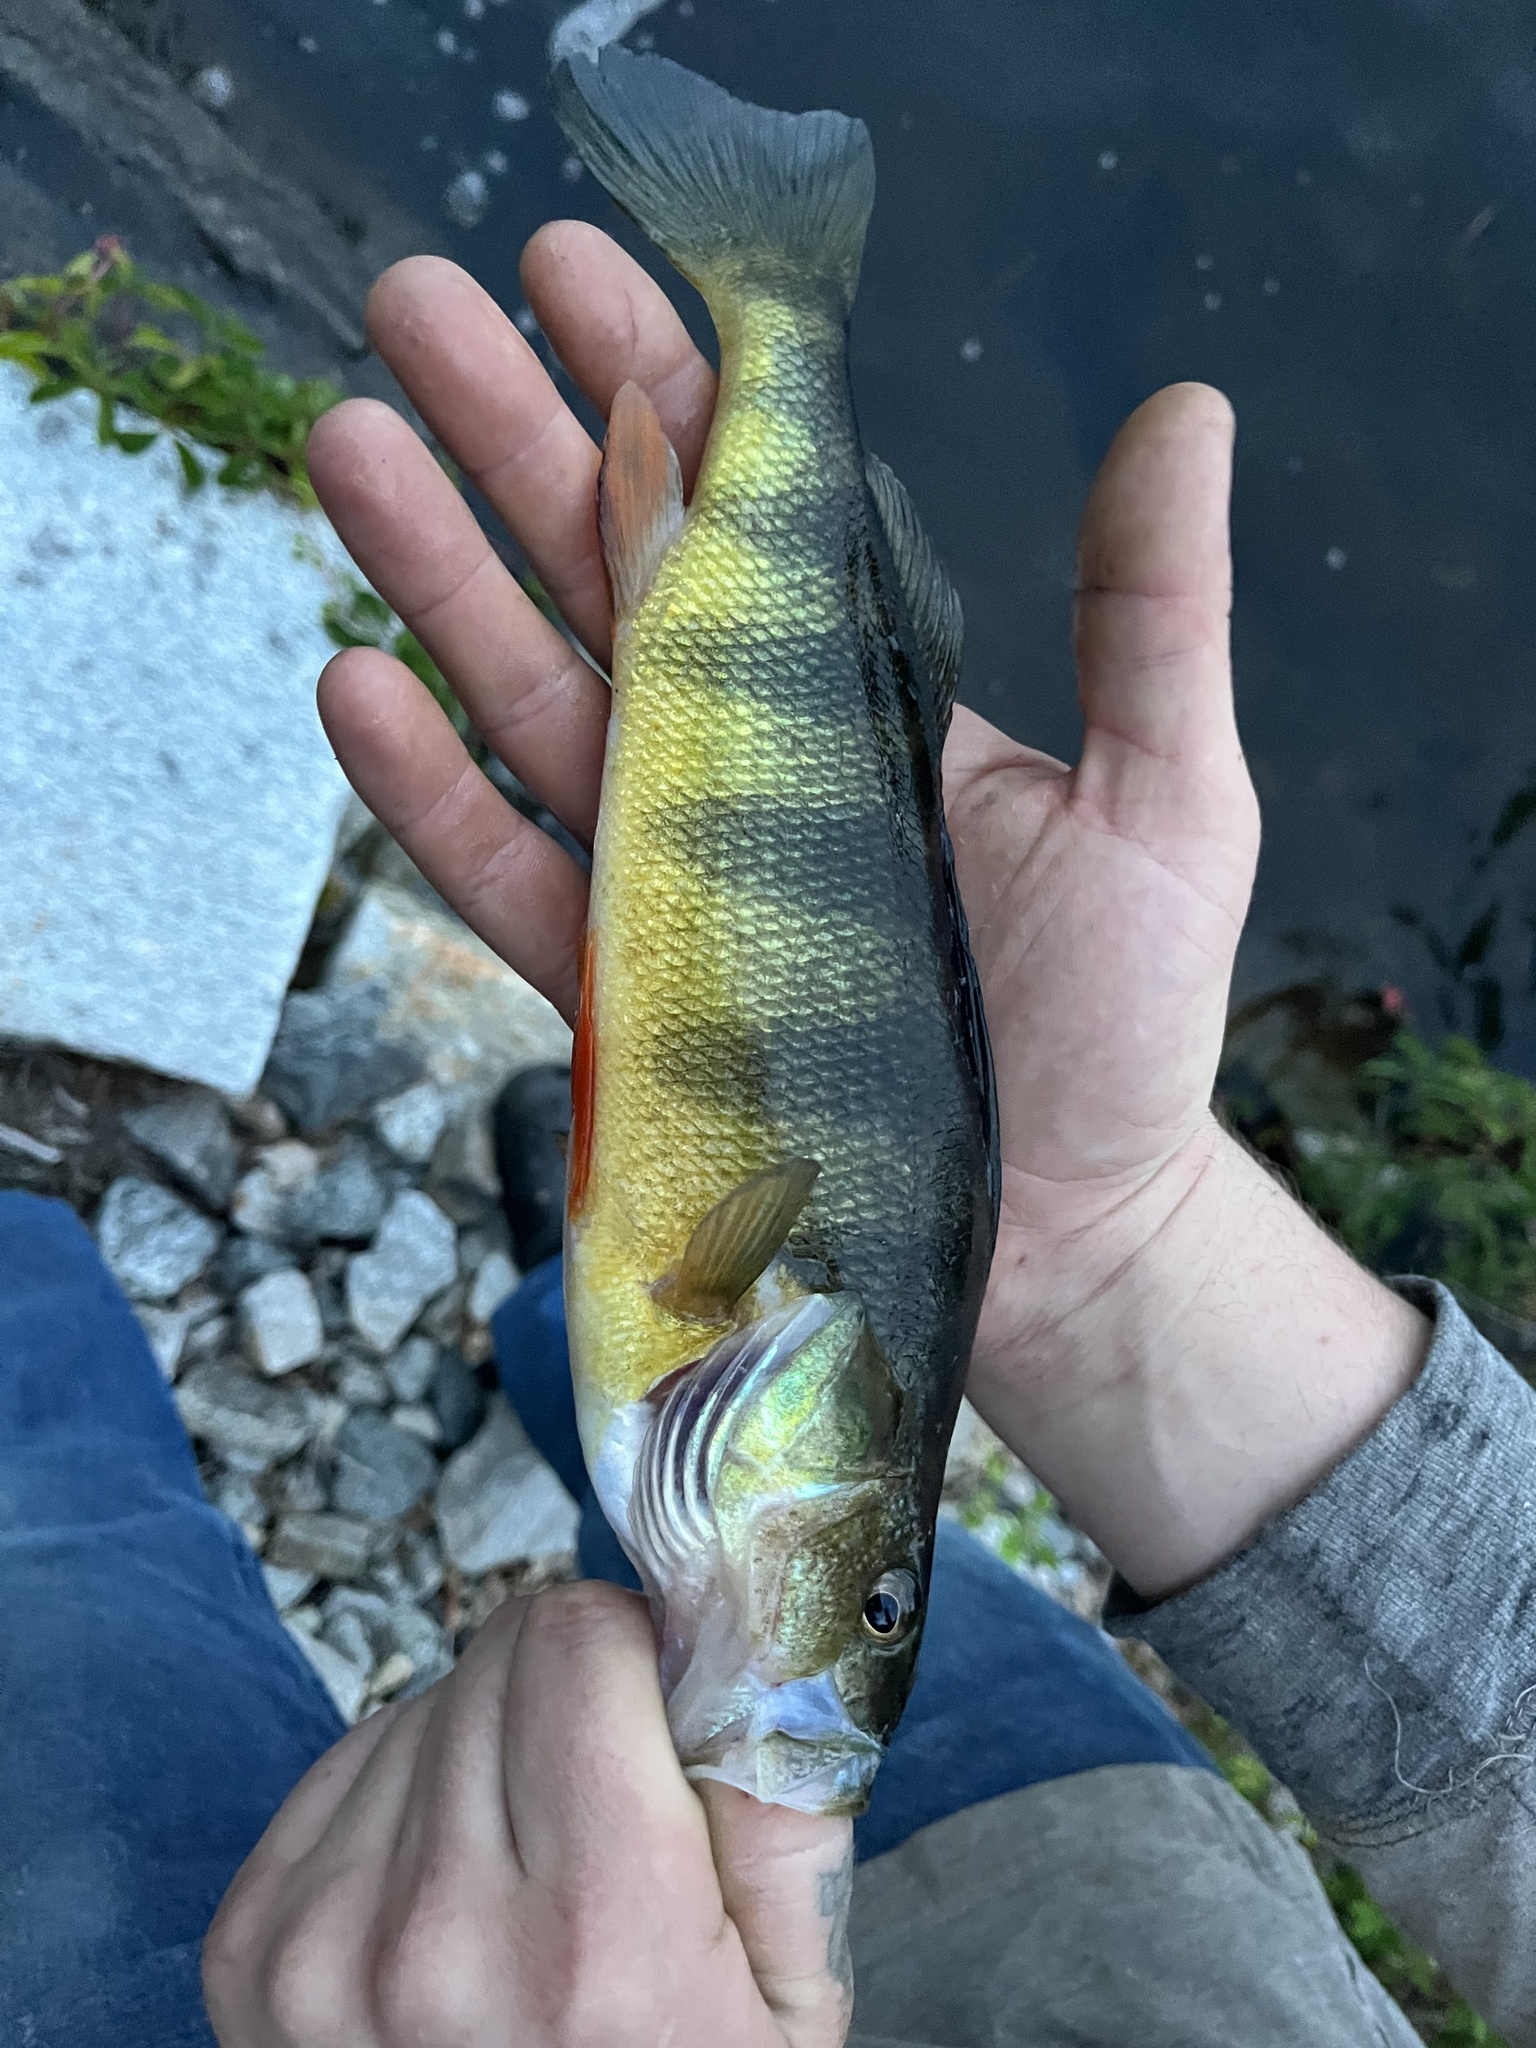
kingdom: Animalia
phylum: Chordata
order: Perciformes
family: Percidae
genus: Perca
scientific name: Perca flavescens
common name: Yellow perch
